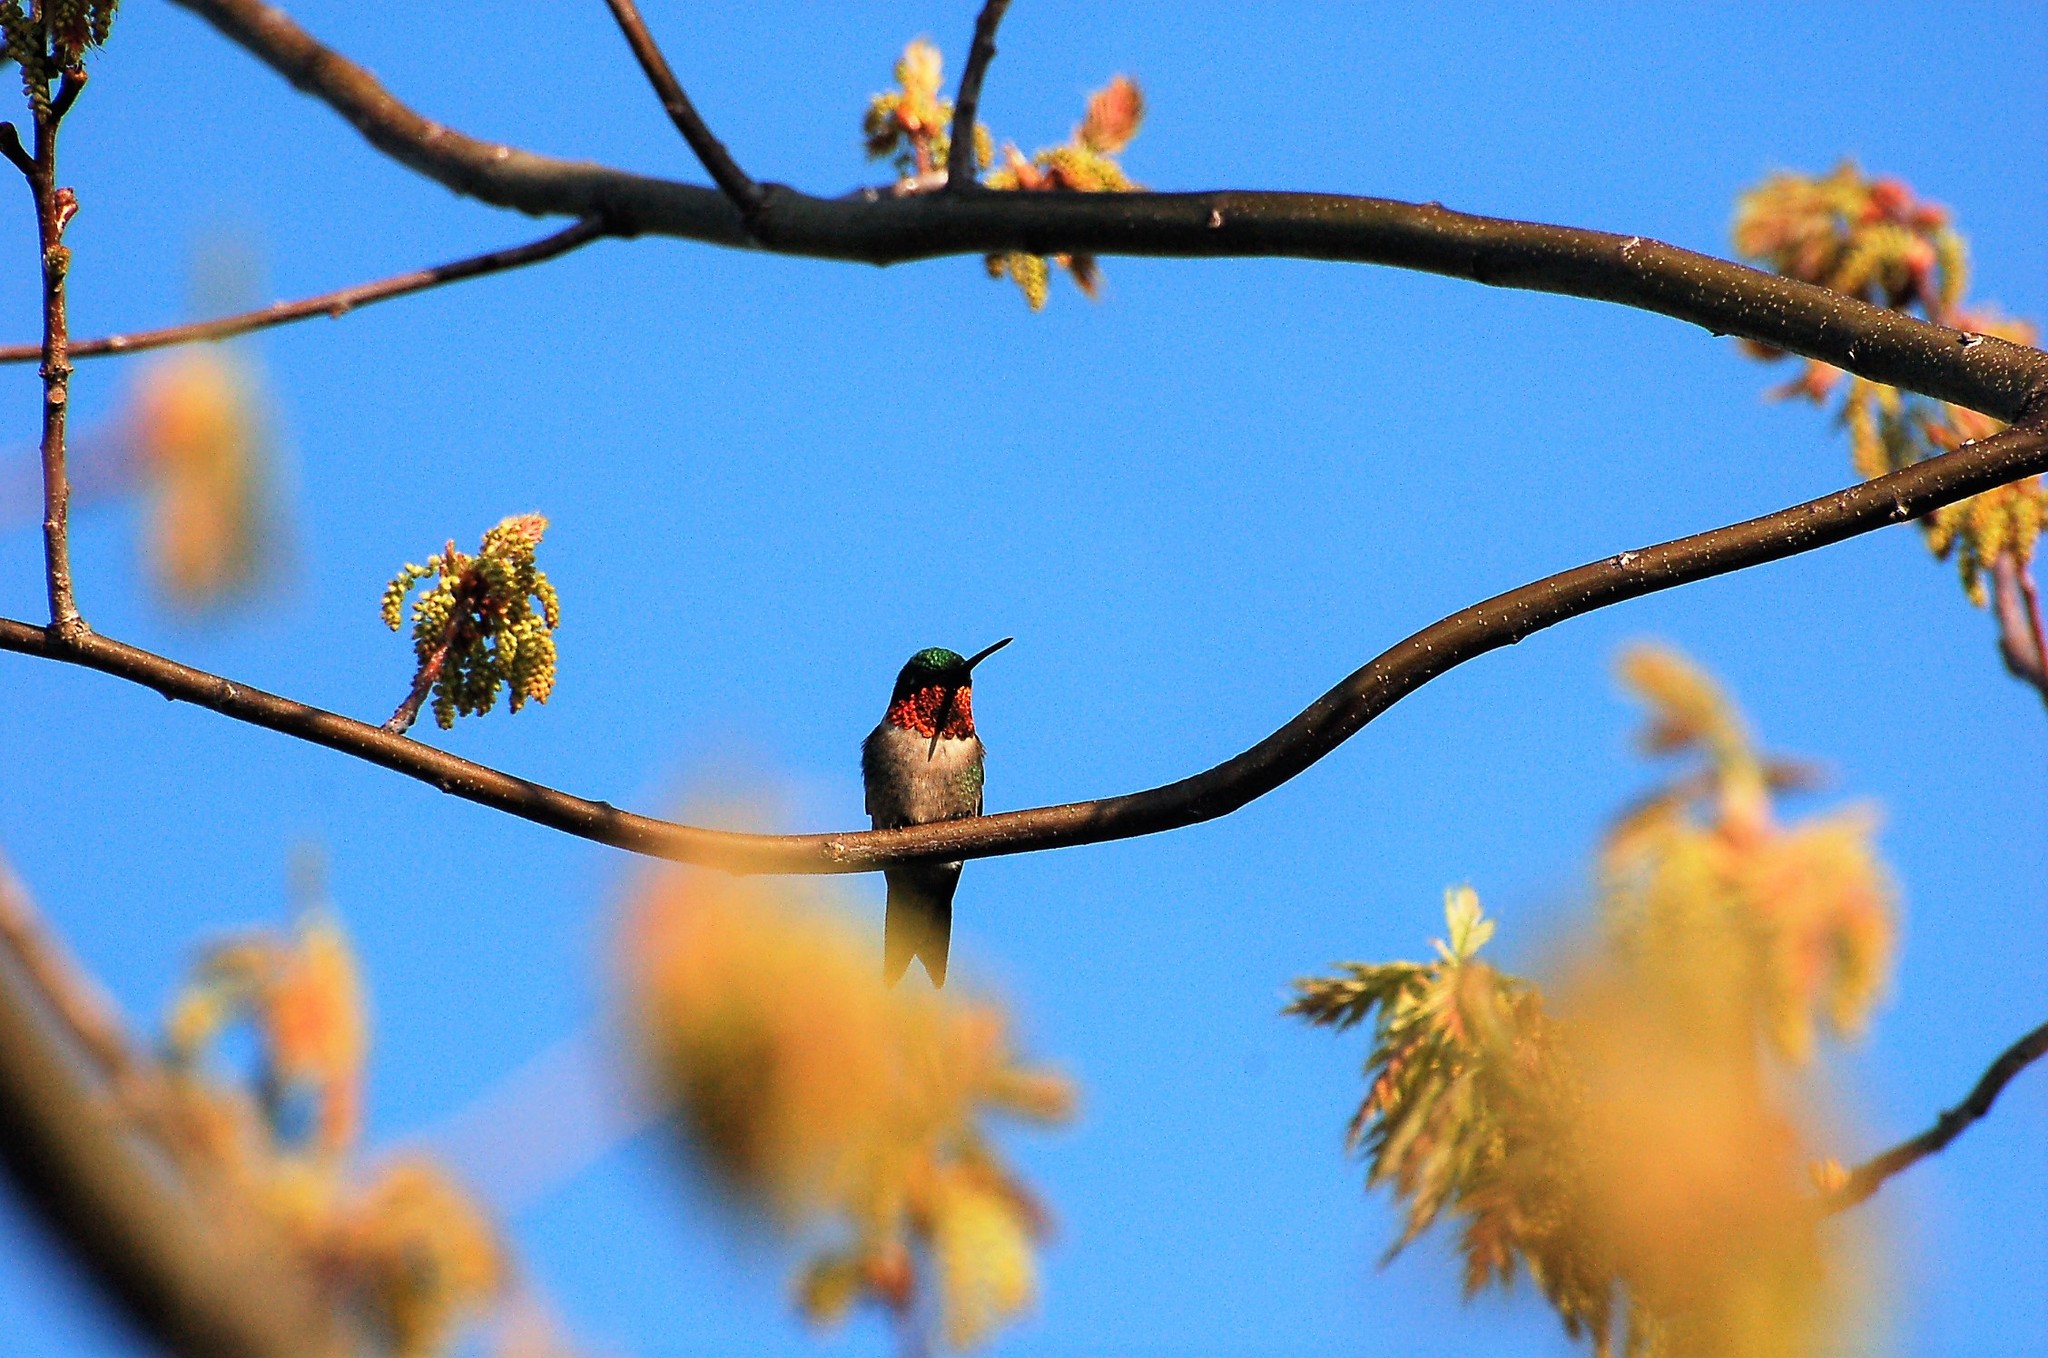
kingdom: Animalia
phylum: Chordata
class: Aves
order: Apodiformes
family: Trochilidae
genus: Archilochus
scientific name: Archilochus colubris
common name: Ruby-throated hummingbird
